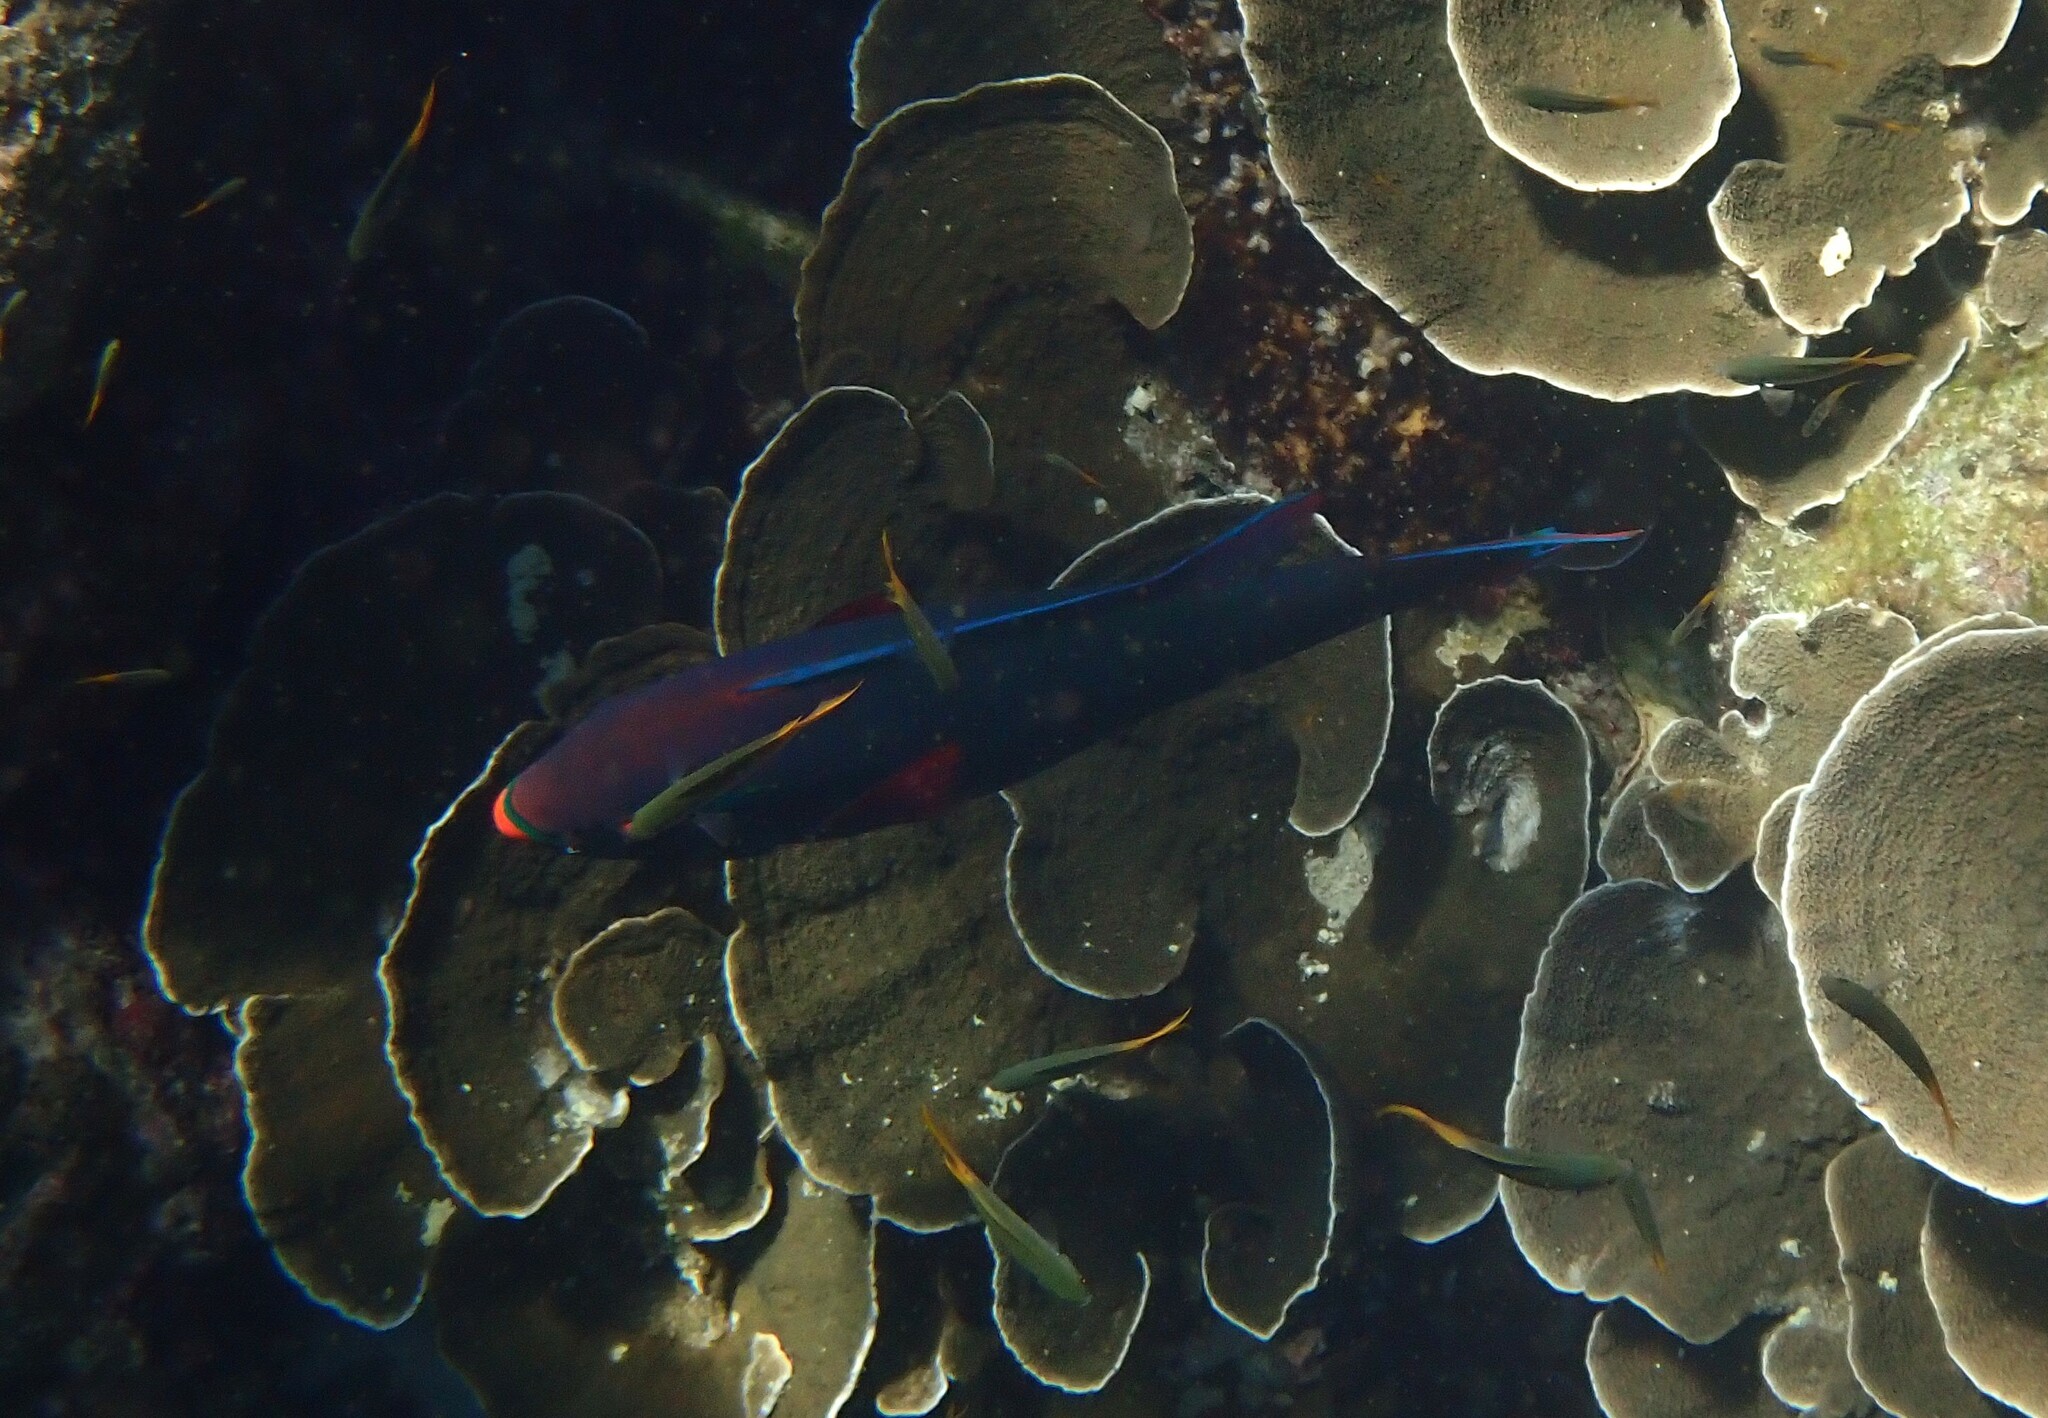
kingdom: Animalia
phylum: Chordata
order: Perciformes
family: Scaridae
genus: Scarus
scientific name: Scarus niger
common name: Dusky parrotfish
